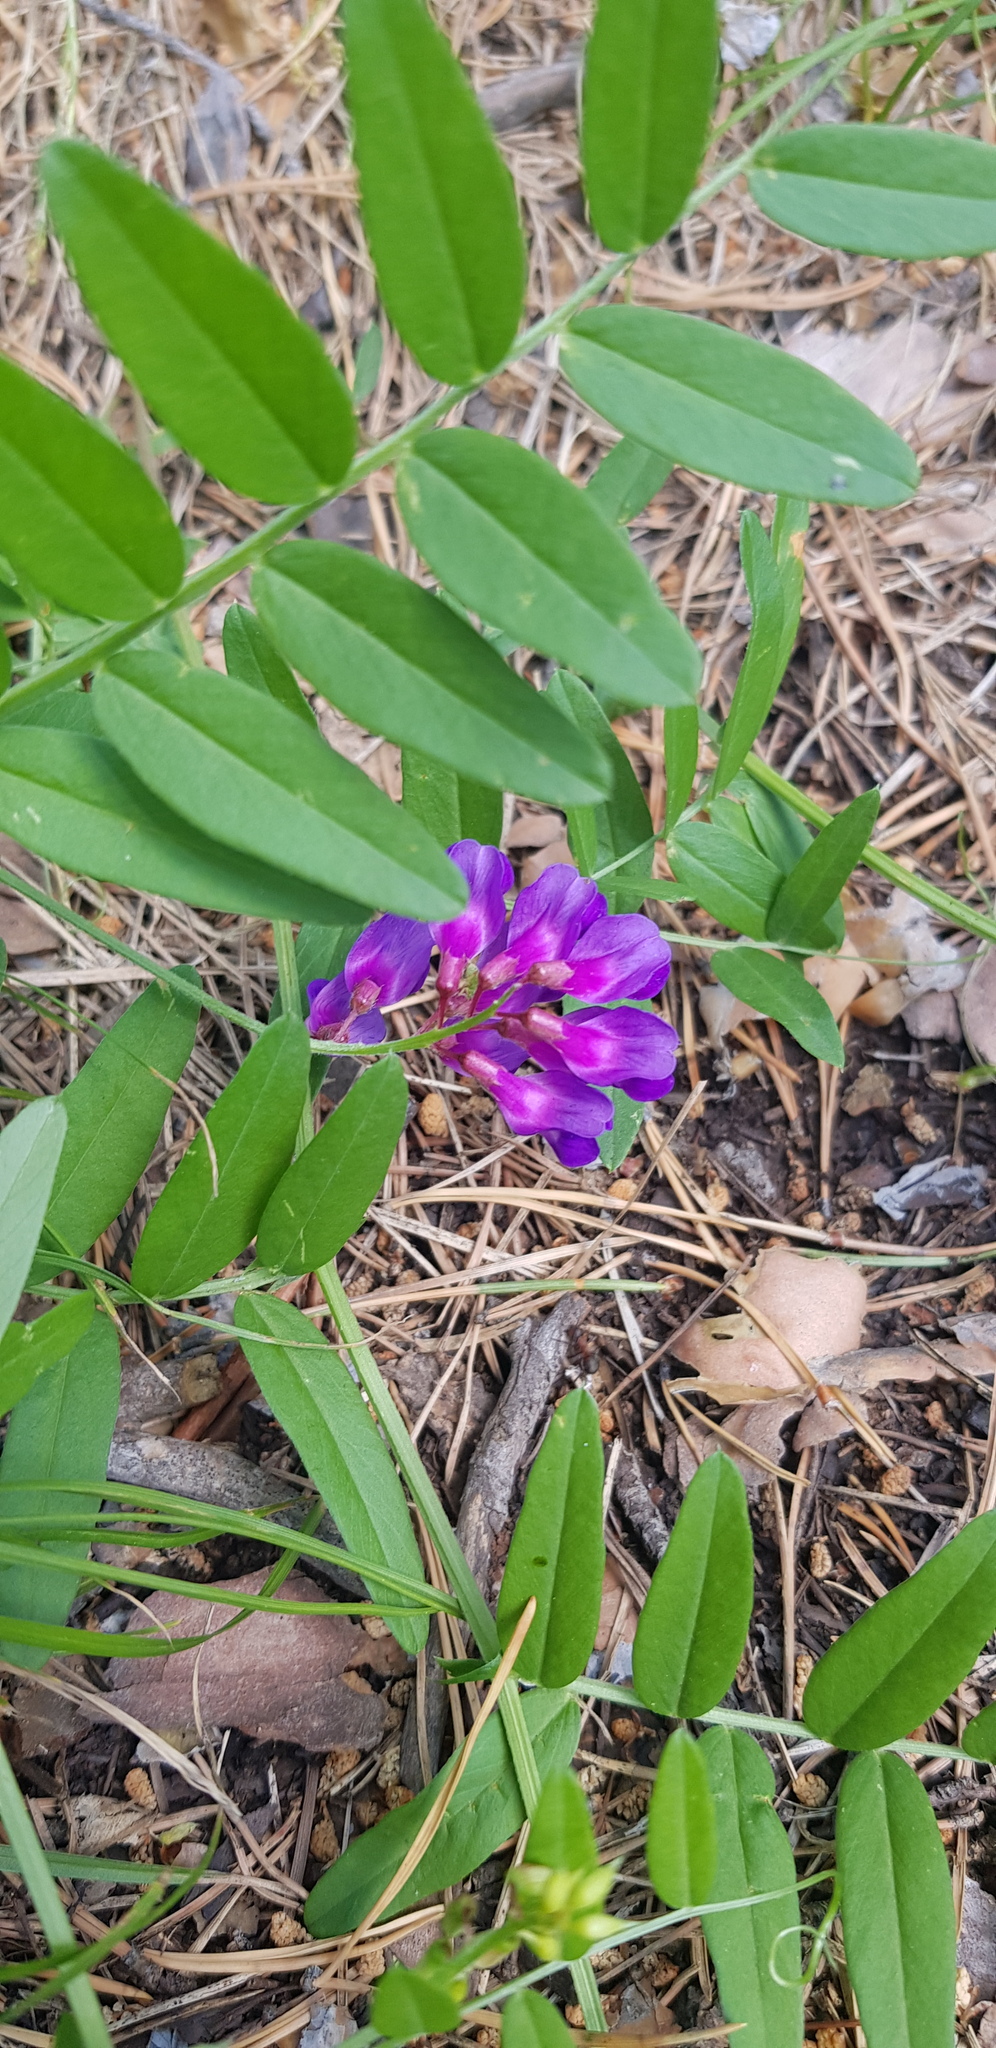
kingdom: Plantae
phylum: Tracheophyta
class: Magnoliopsida
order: Fabales
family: Fabaceae
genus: Vicia
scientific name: Vicia amoena
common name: Cheder ebs
